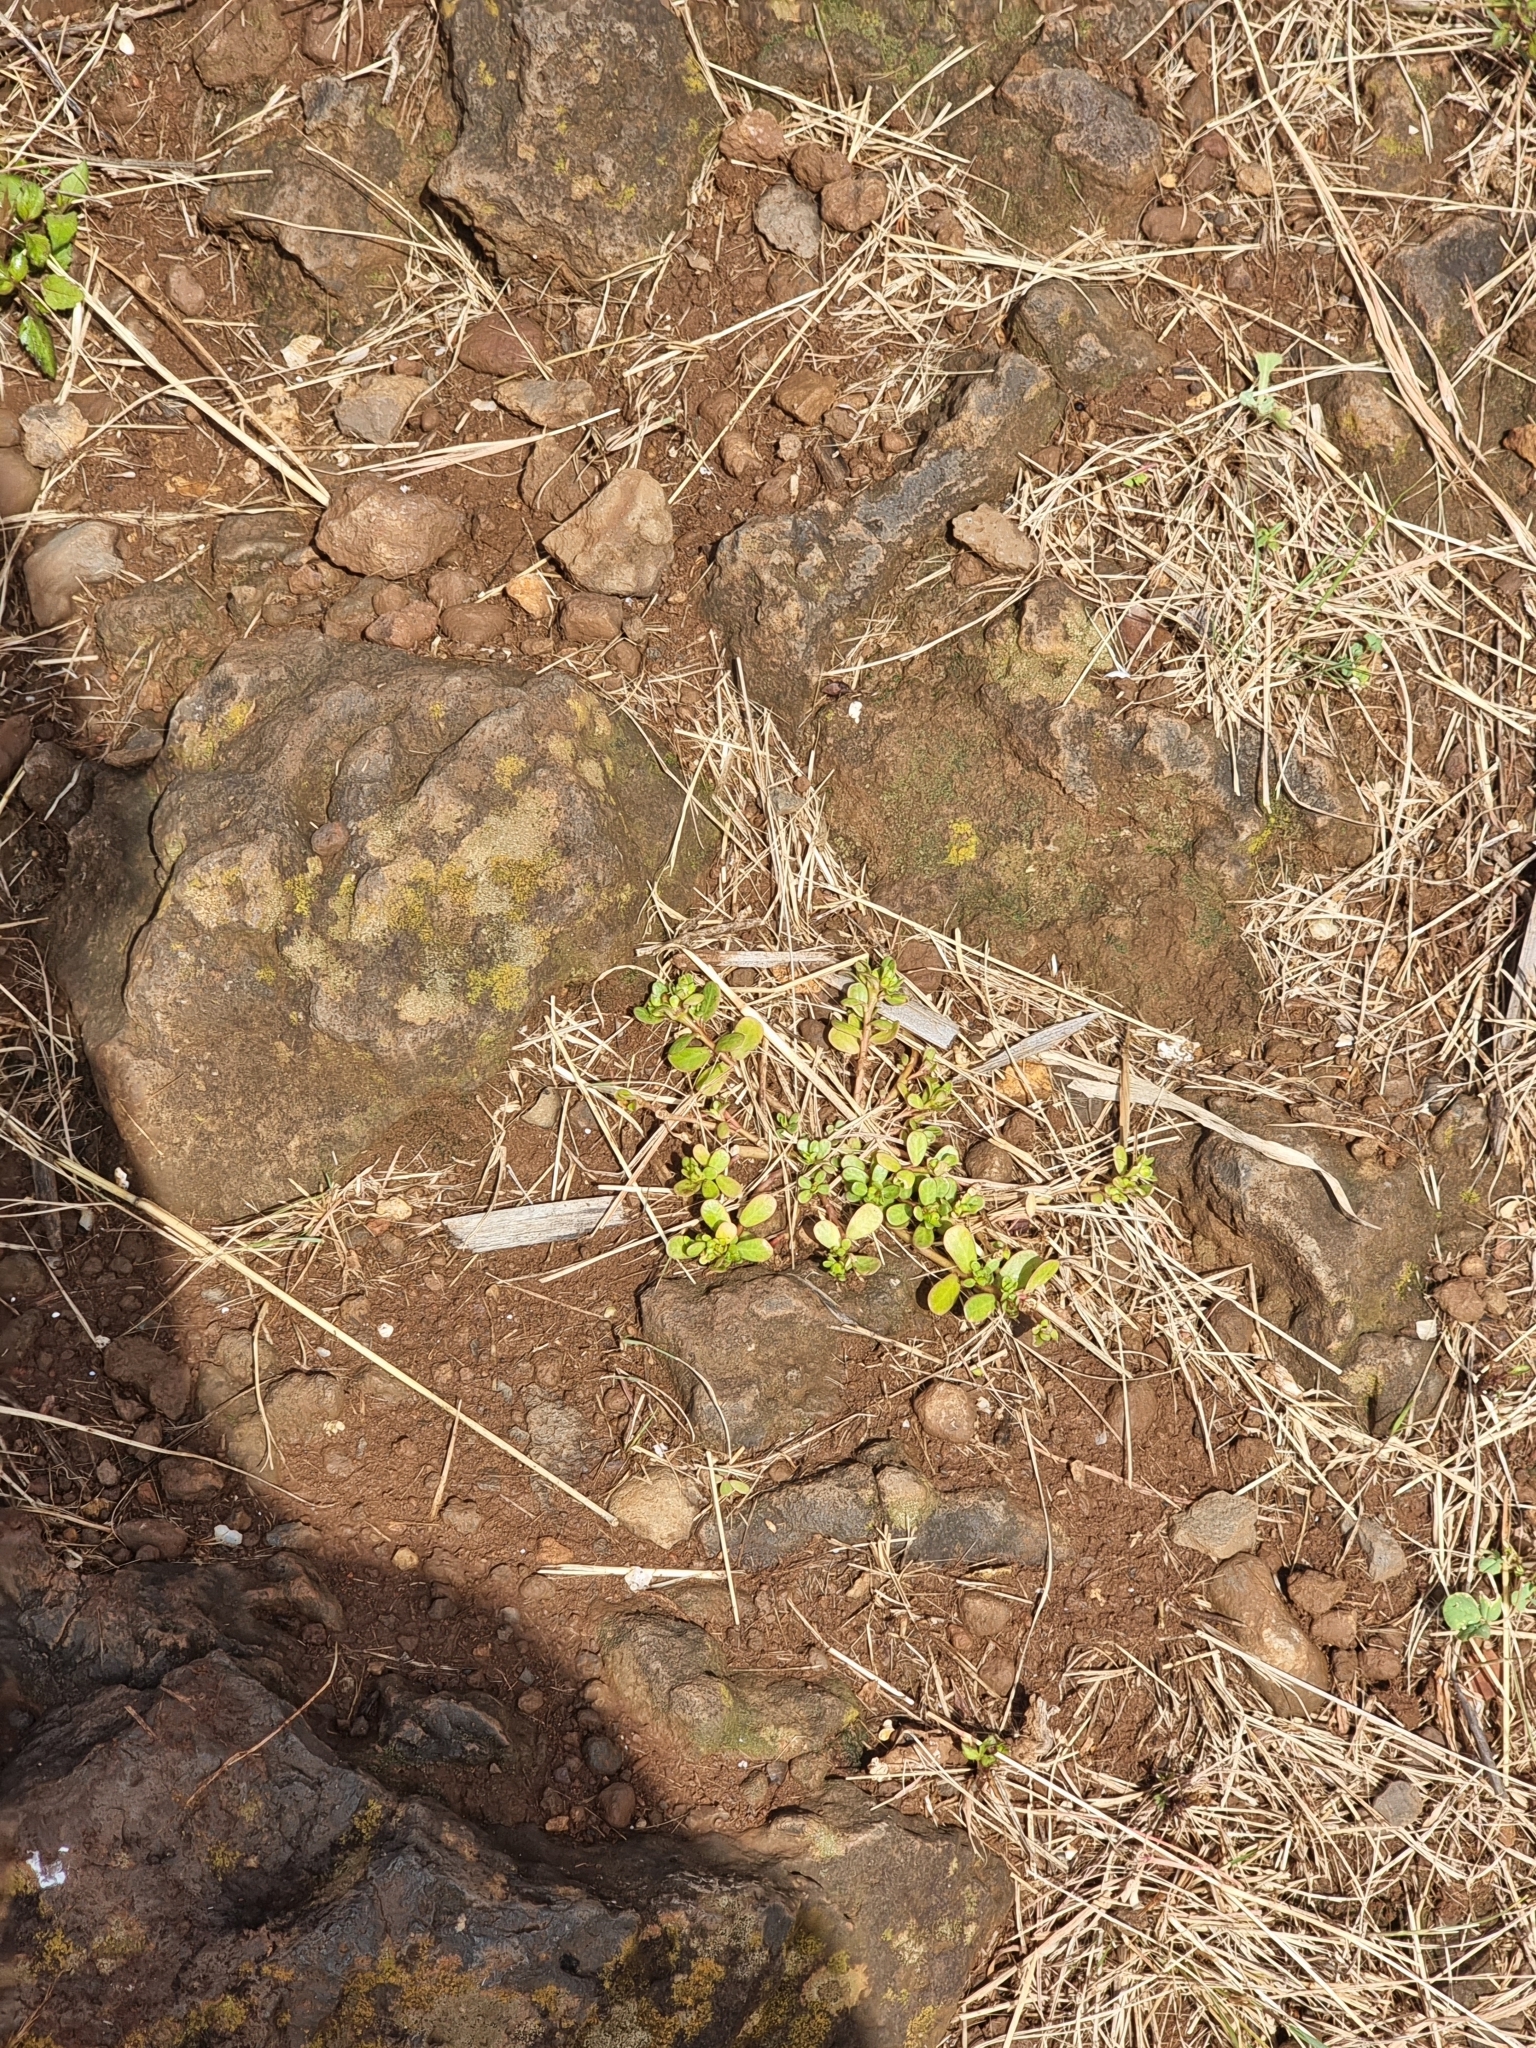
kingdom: Plantae
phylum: Tracheophyta
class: Magnoliopsida
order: Caryophyllales
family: Portulacaceae
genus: Portulaca
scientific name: Portulaca oleracea
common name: Common purslane
